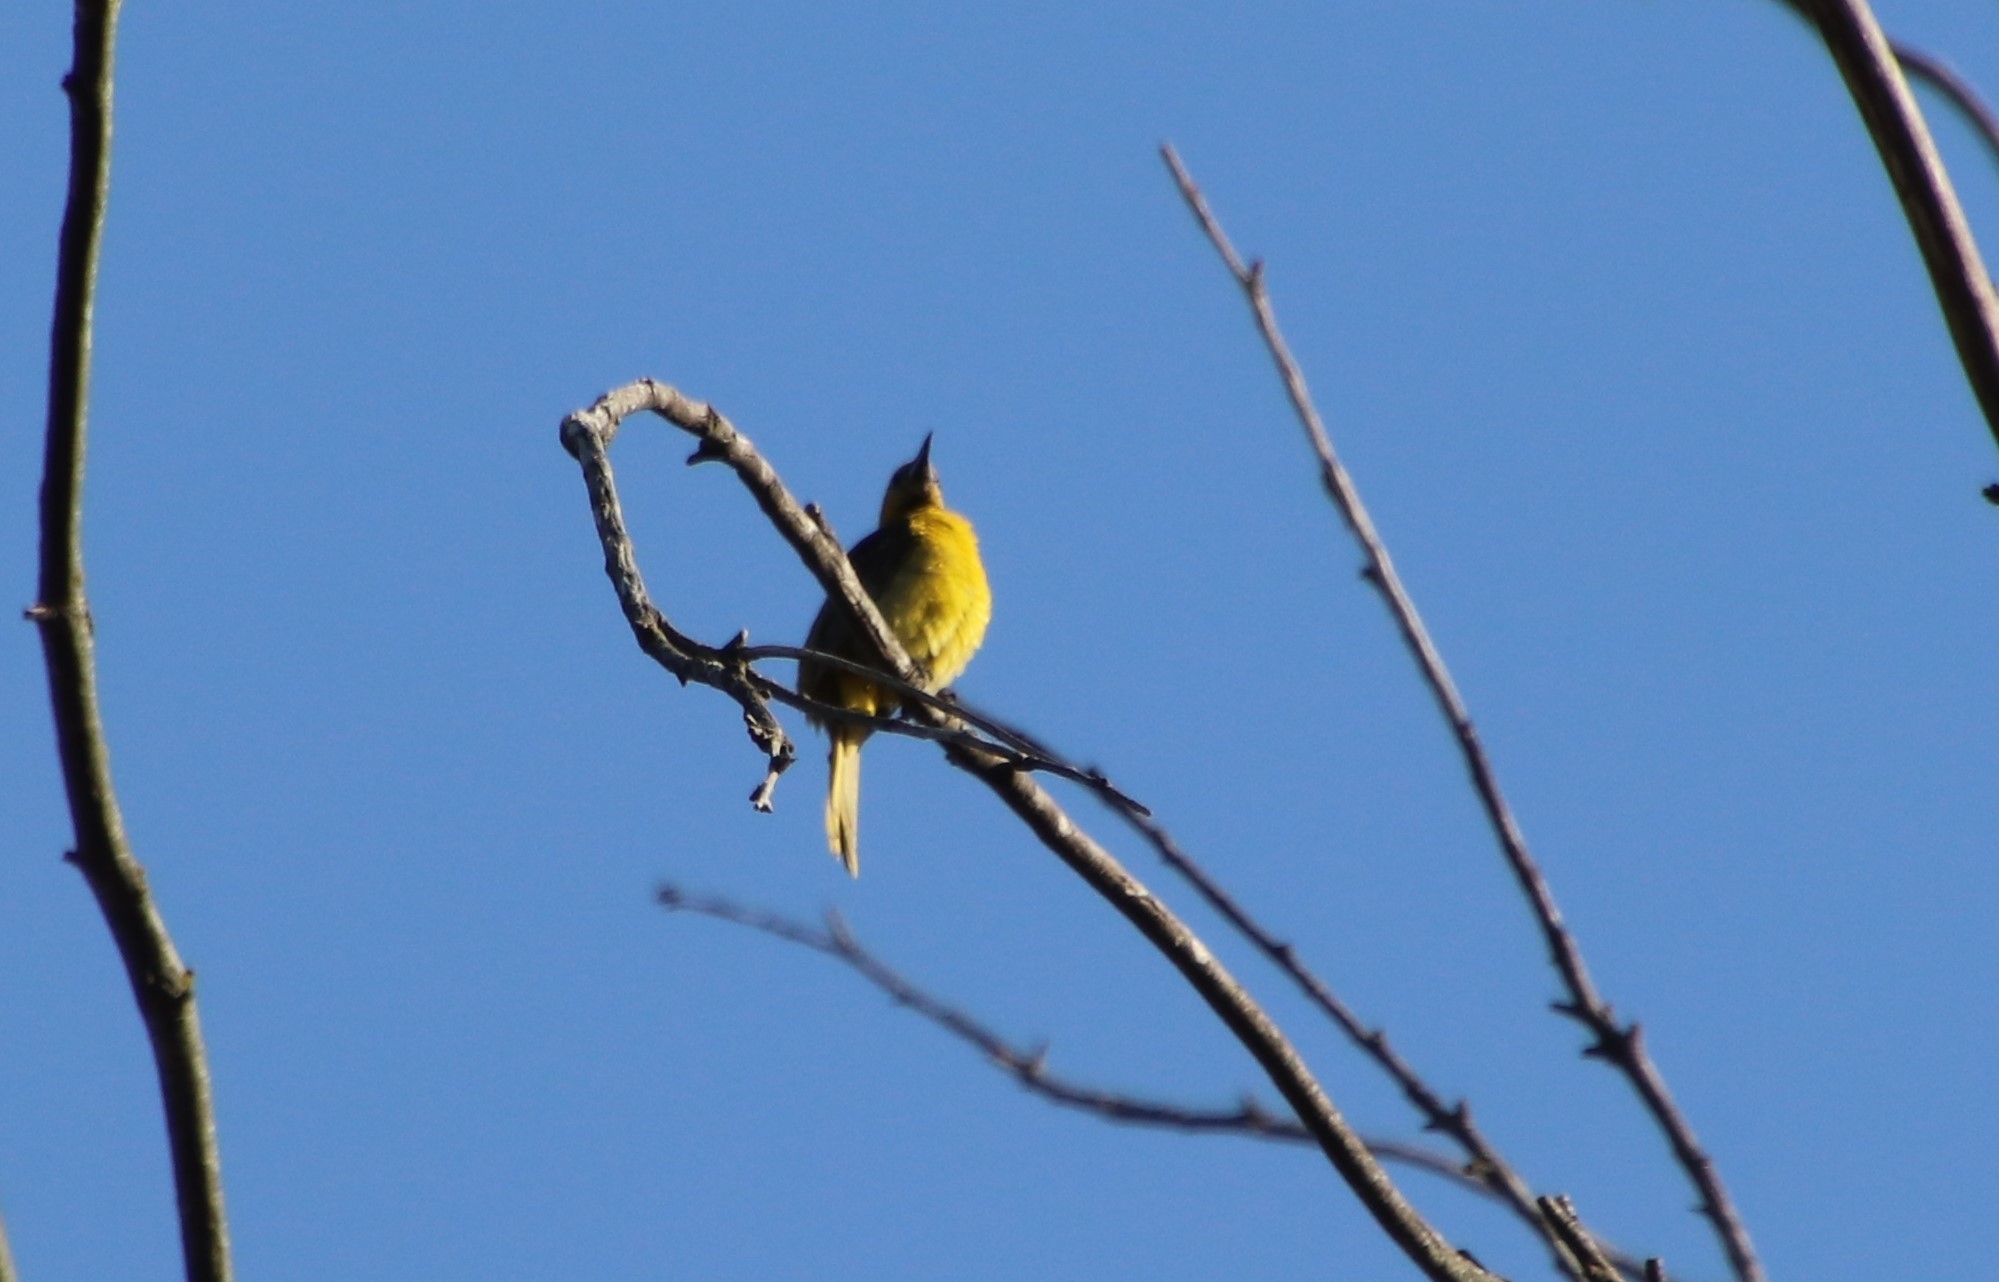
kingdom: Animalia
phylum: Chordata
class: Aves
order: Passeriformes
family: Icteridae
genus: Icterus
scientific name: Icterus cucullatus
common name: Hooded oriole
